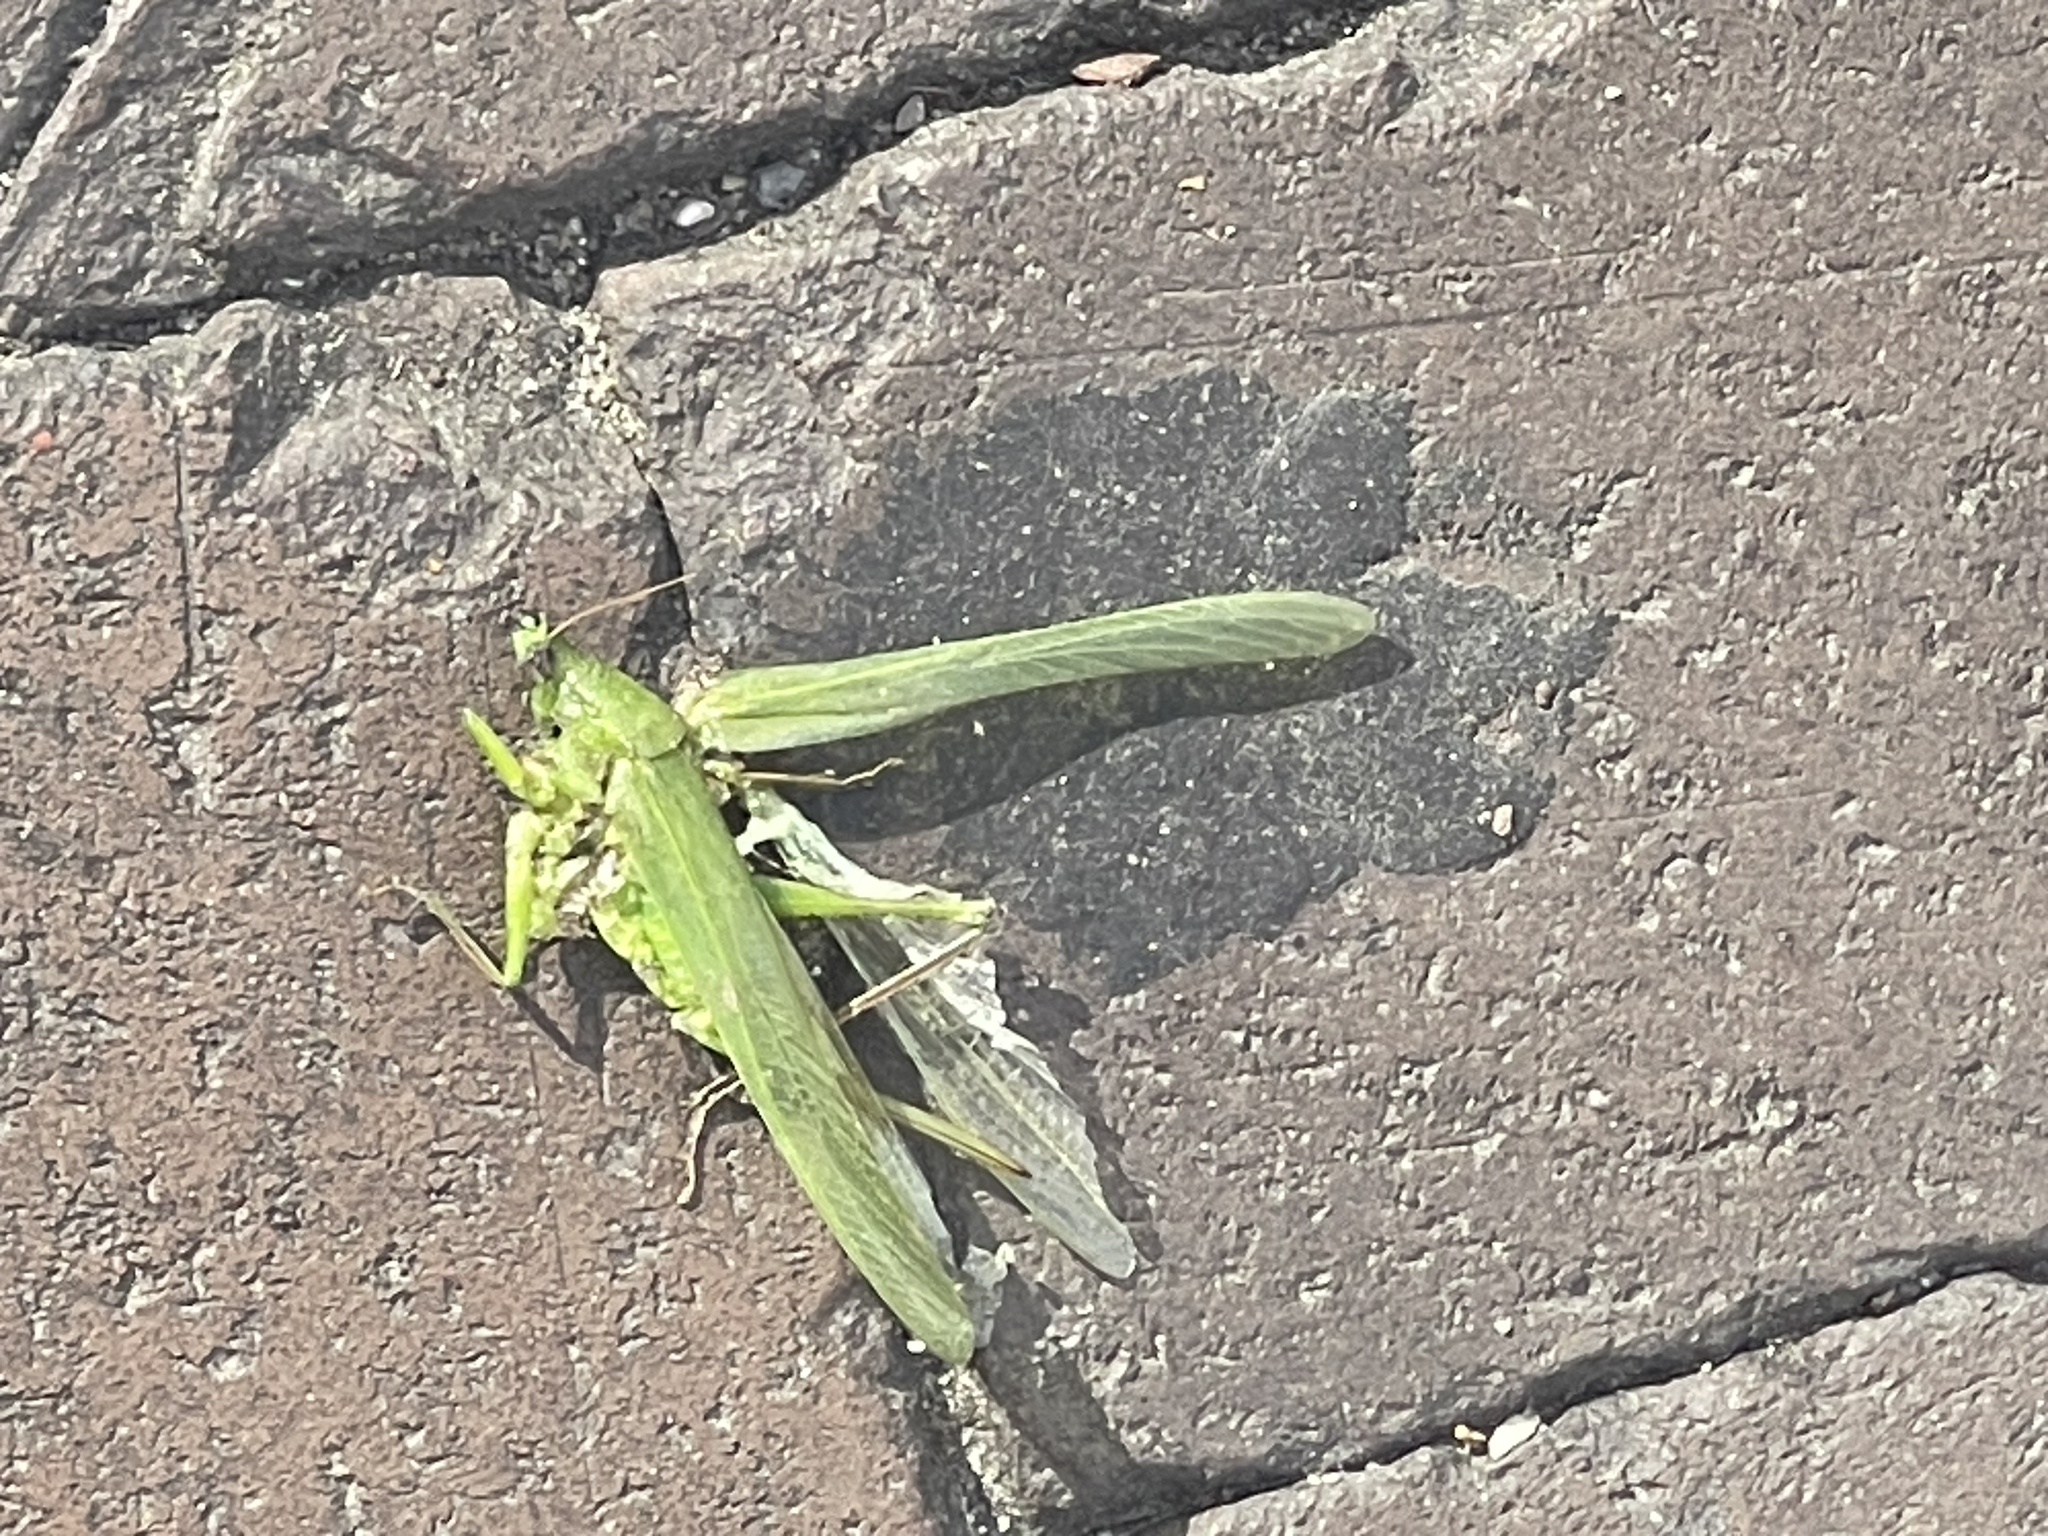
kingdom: Animalia
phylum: Arthropoda
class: Insecta
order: Orthoptera
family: Tettigoniidae
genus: Neoconocephalus
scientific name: Neoconocephalus triops
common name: Broad-tipped conehead
